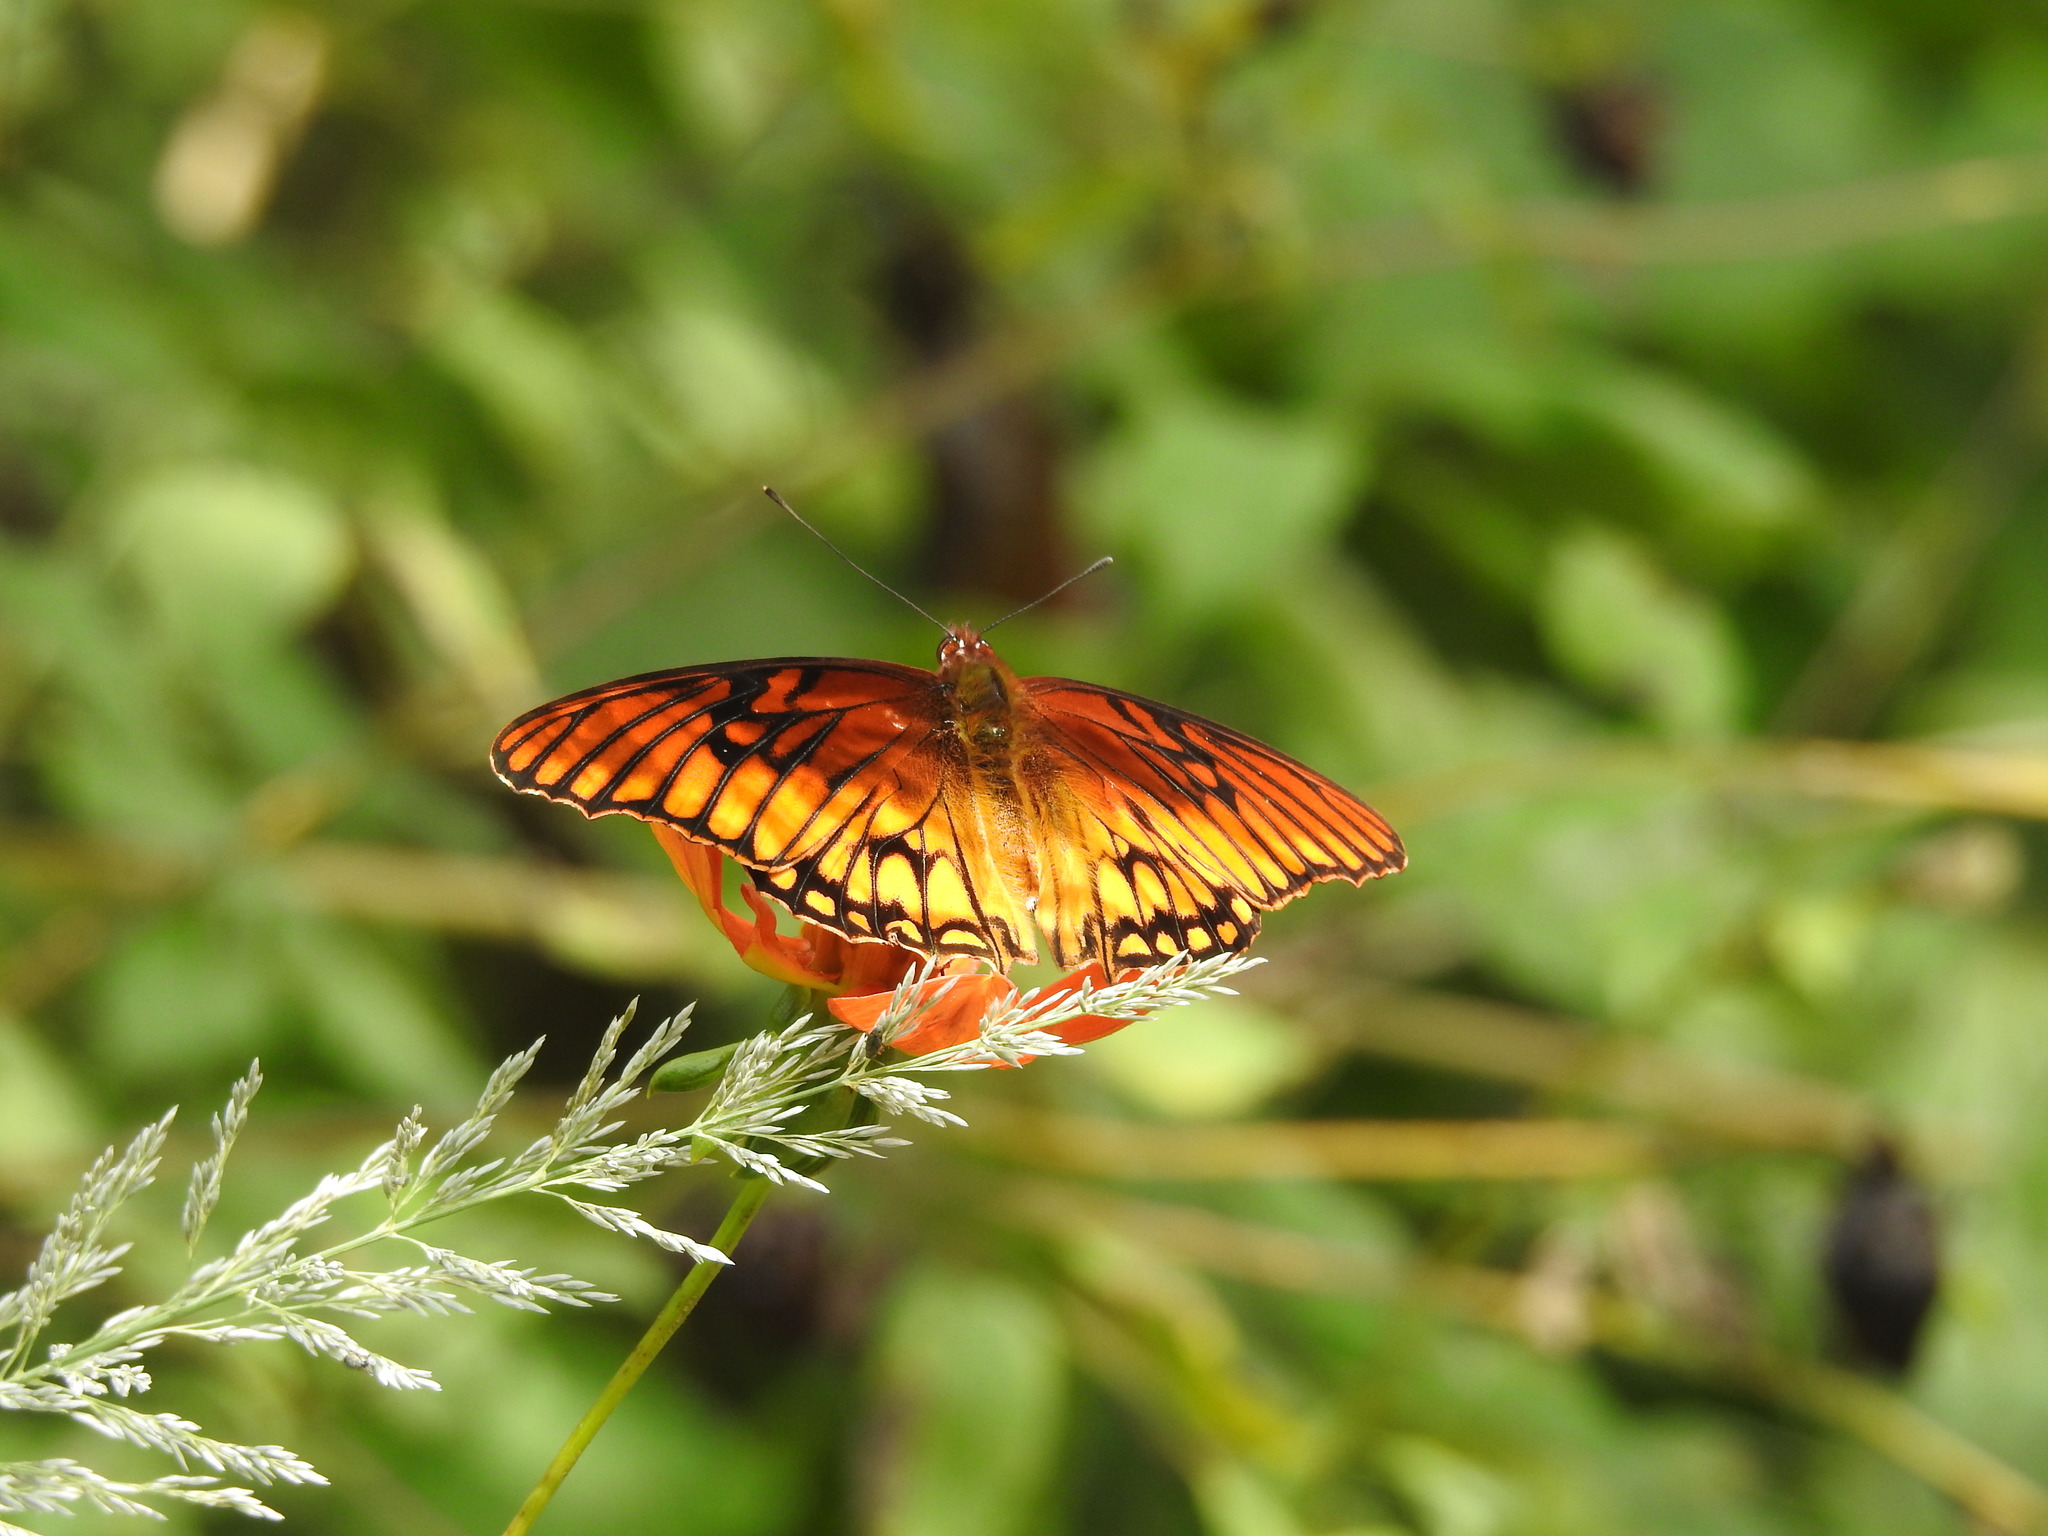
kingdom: Animalia
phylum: Arthropoda
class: Insecta
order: Lepidoptera
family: Nymphalidae
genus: Dione
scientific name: Dione moneta
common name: Mexican silverspot
